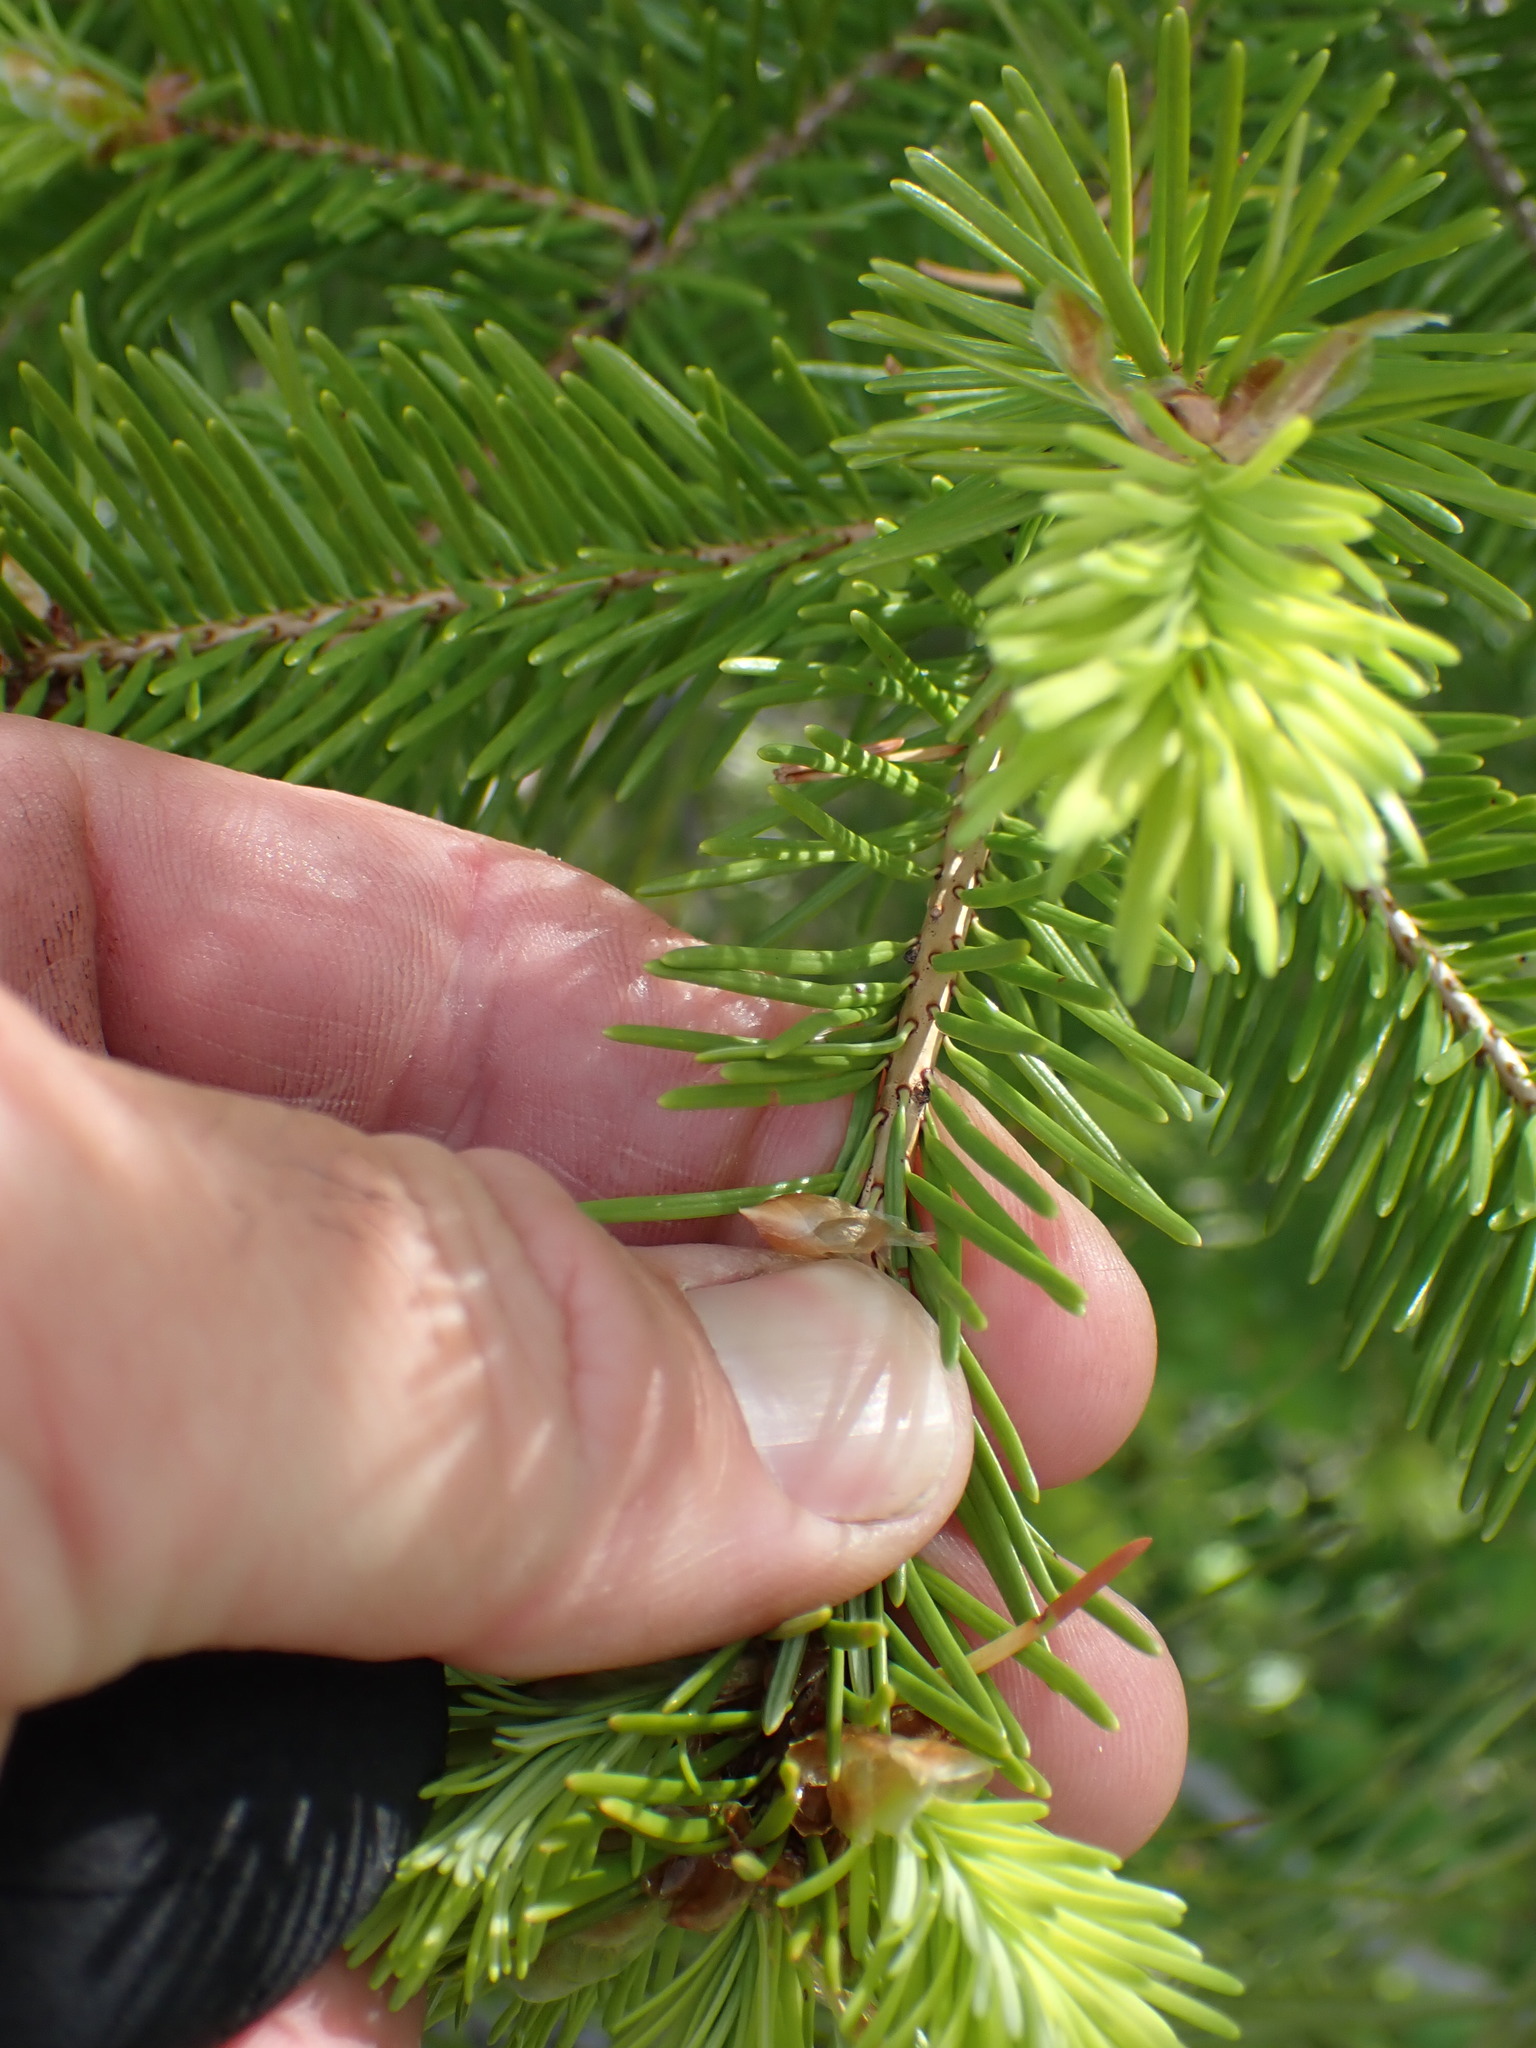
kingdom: Plantae
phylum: Tracheophyta
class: Pinopsida
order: Pinales
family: Pinaceae
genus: Pseudotsuga
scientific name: Pseudotsuga menziesii
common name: Douglas fir
